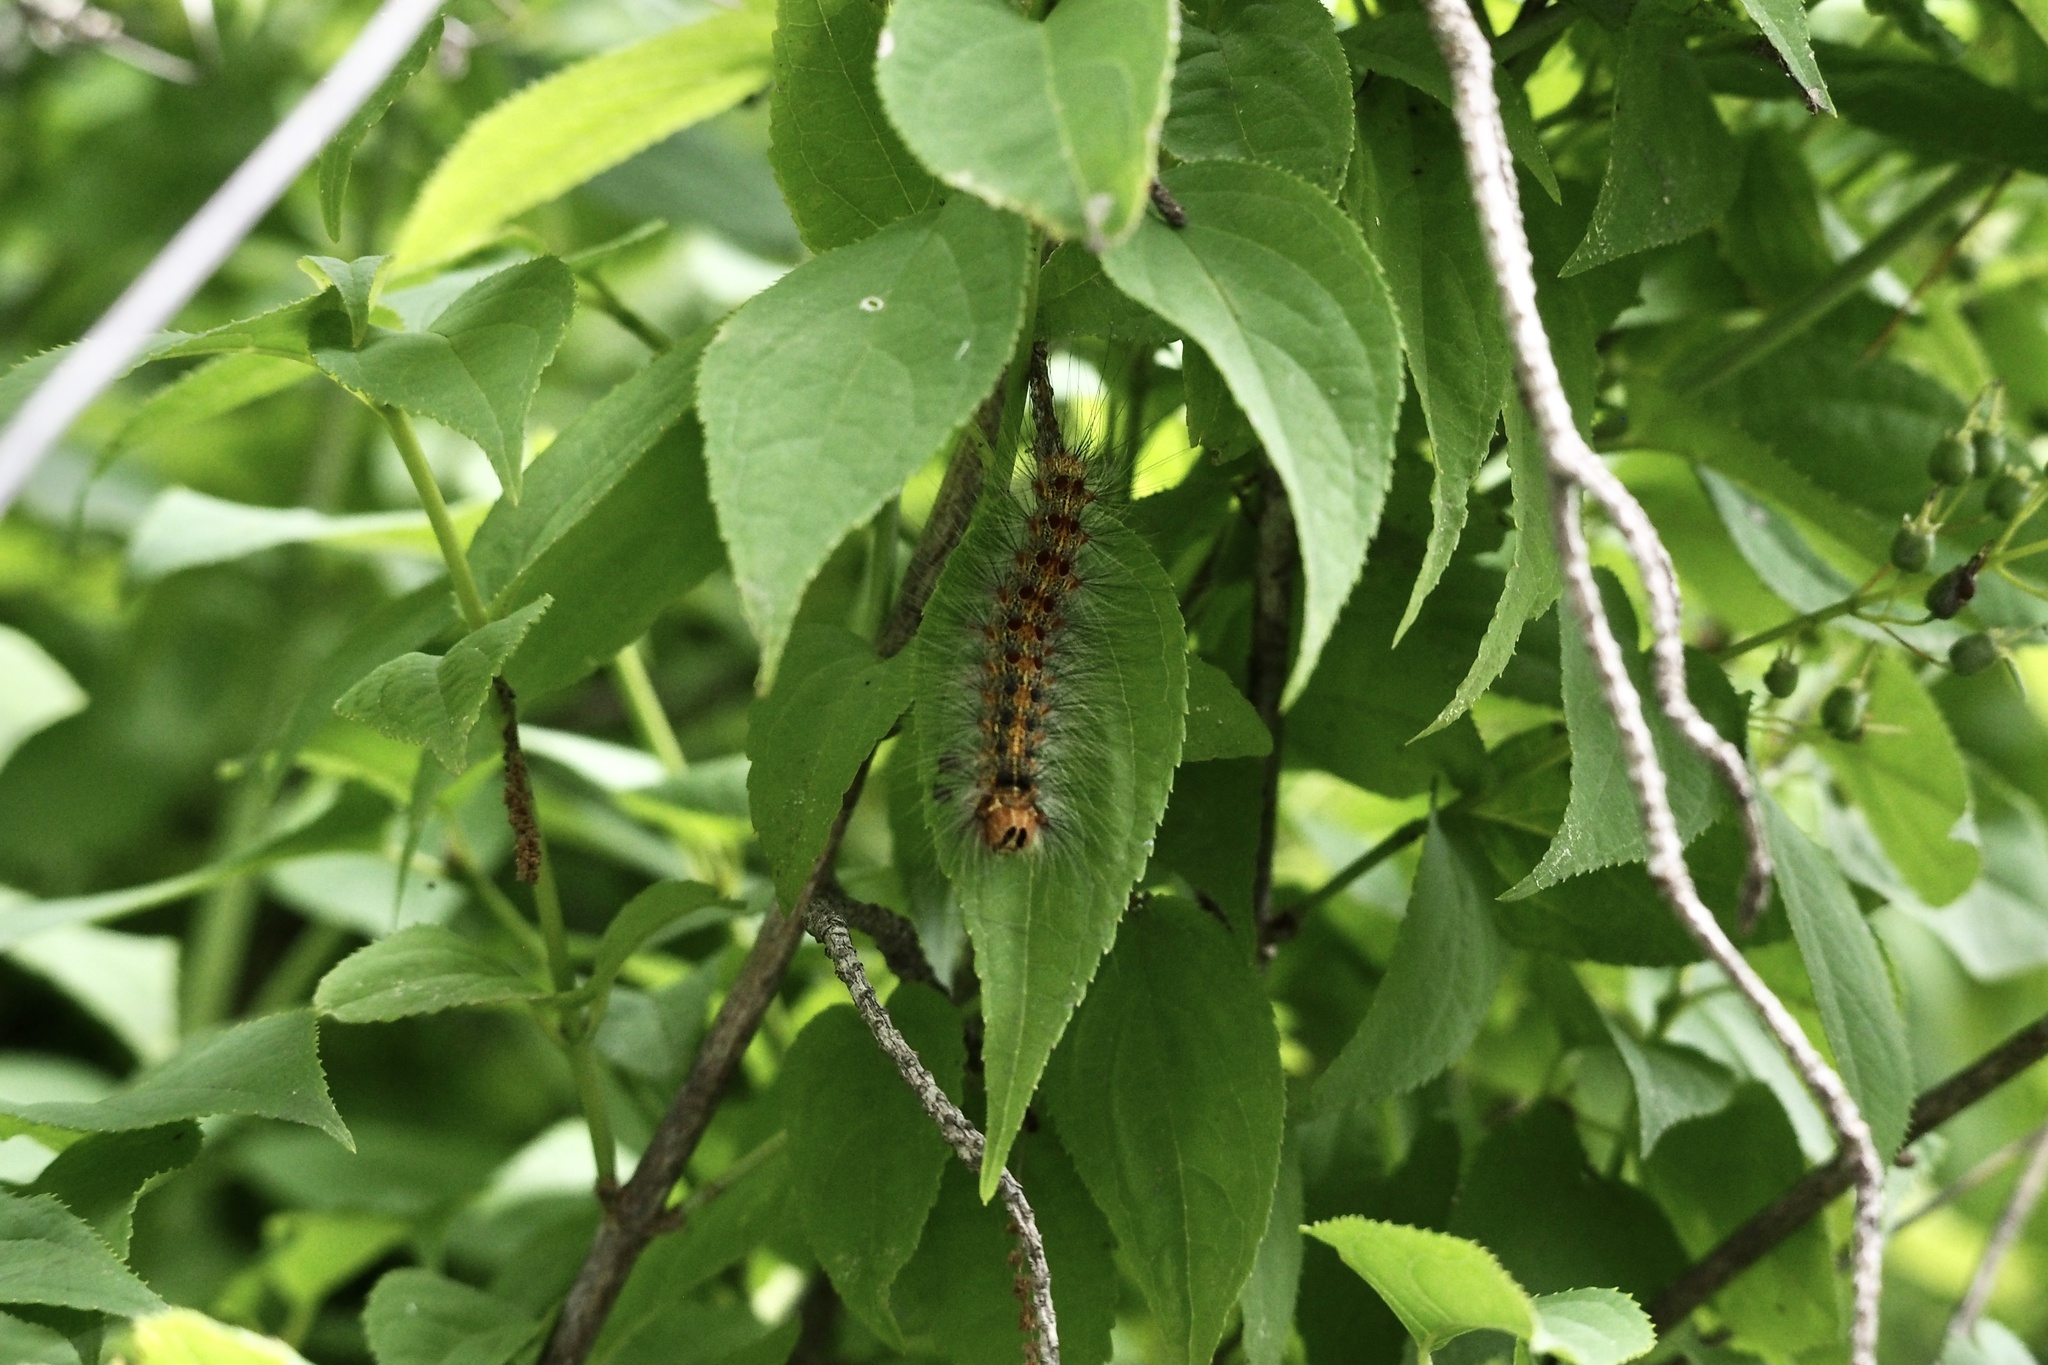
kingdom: Animalia
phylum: Arthropoda
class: Insecta
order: Lepidoptera
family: Erebidae
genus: Lymantria
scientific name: Lymantria dispar
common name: Gypsy moth
